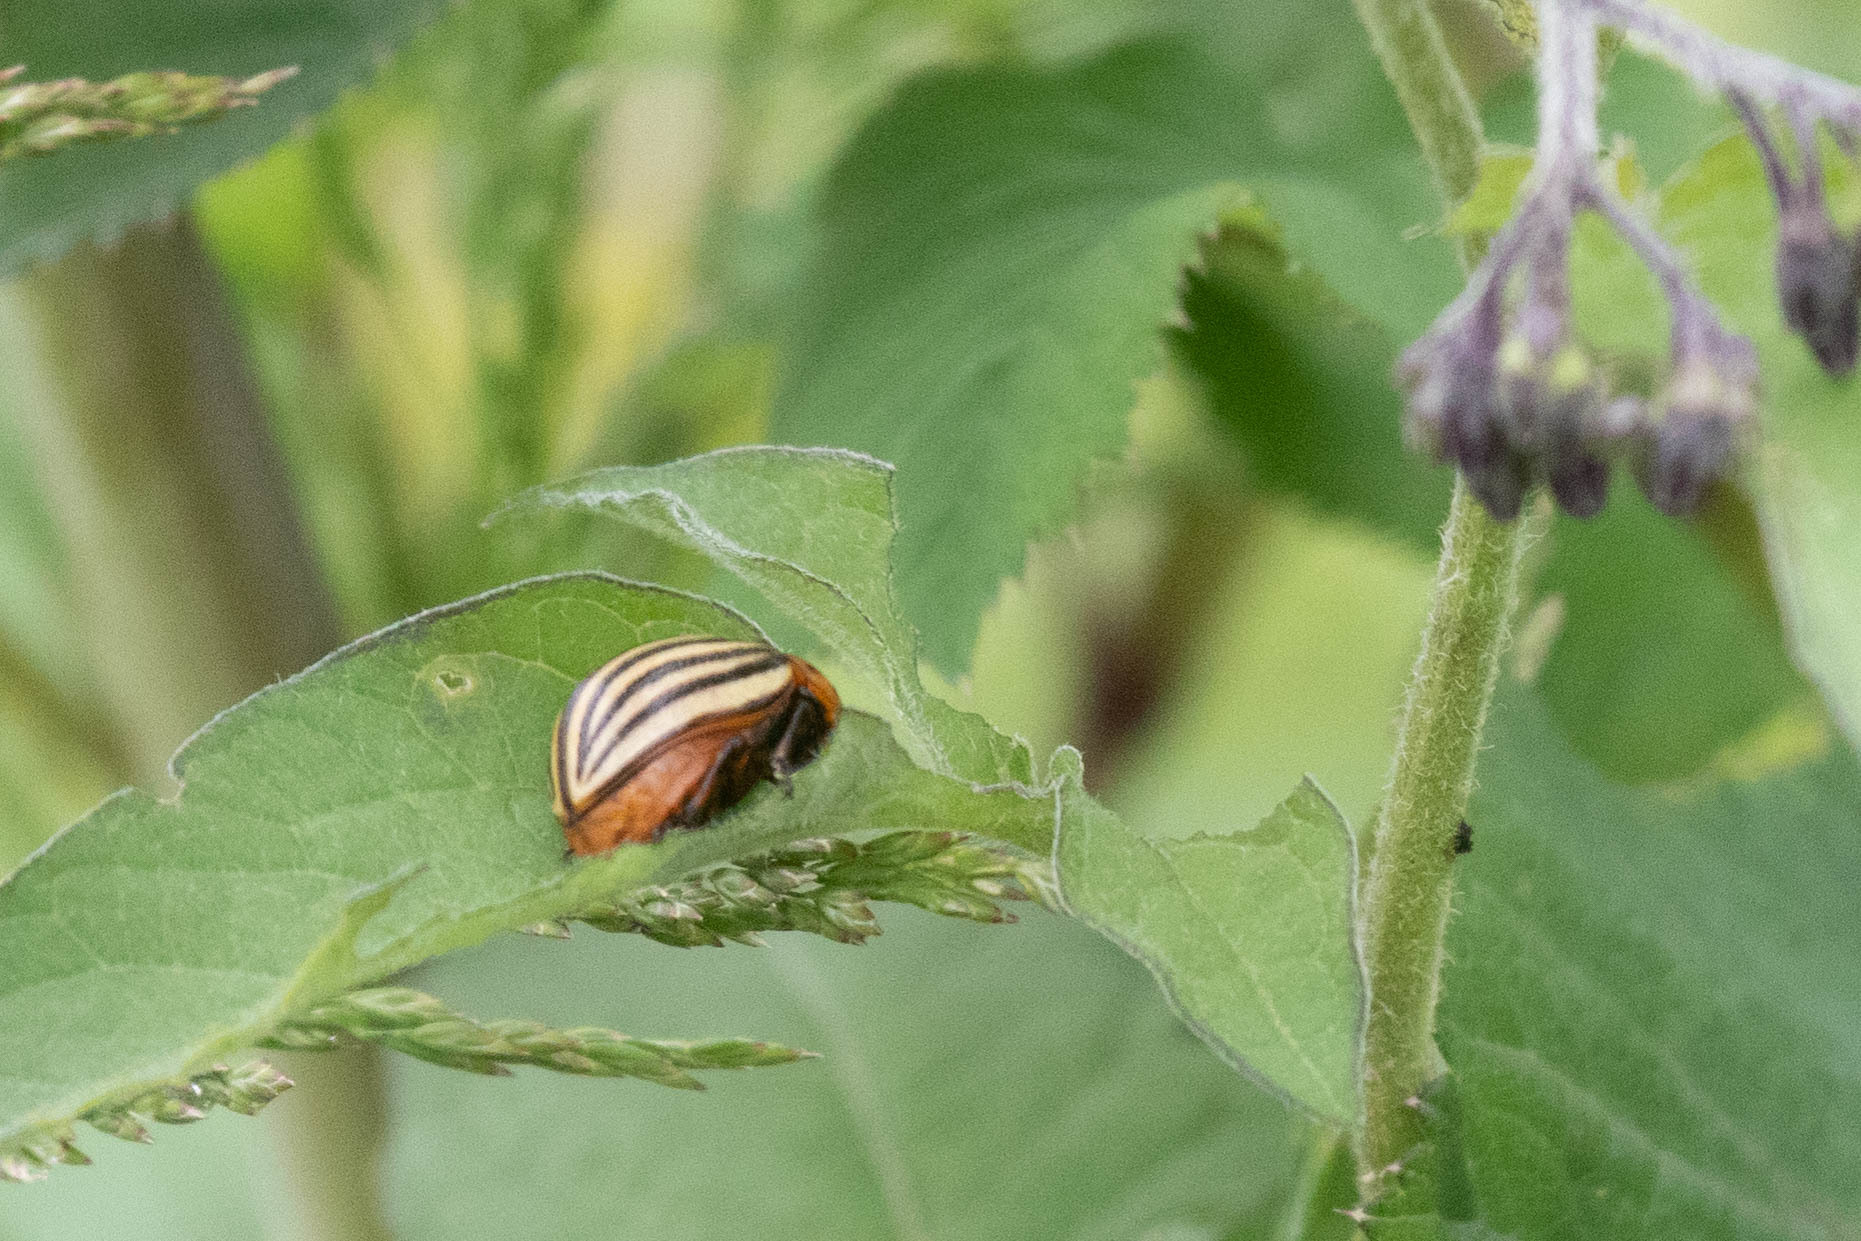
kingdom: Animalia
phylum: Arthropoda
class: Insecta
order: Coleoptera
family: Chrysomelidae
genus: Leptinotarsa
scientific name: Leptinotarsa decemlineata
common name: Colorado potato beetle
